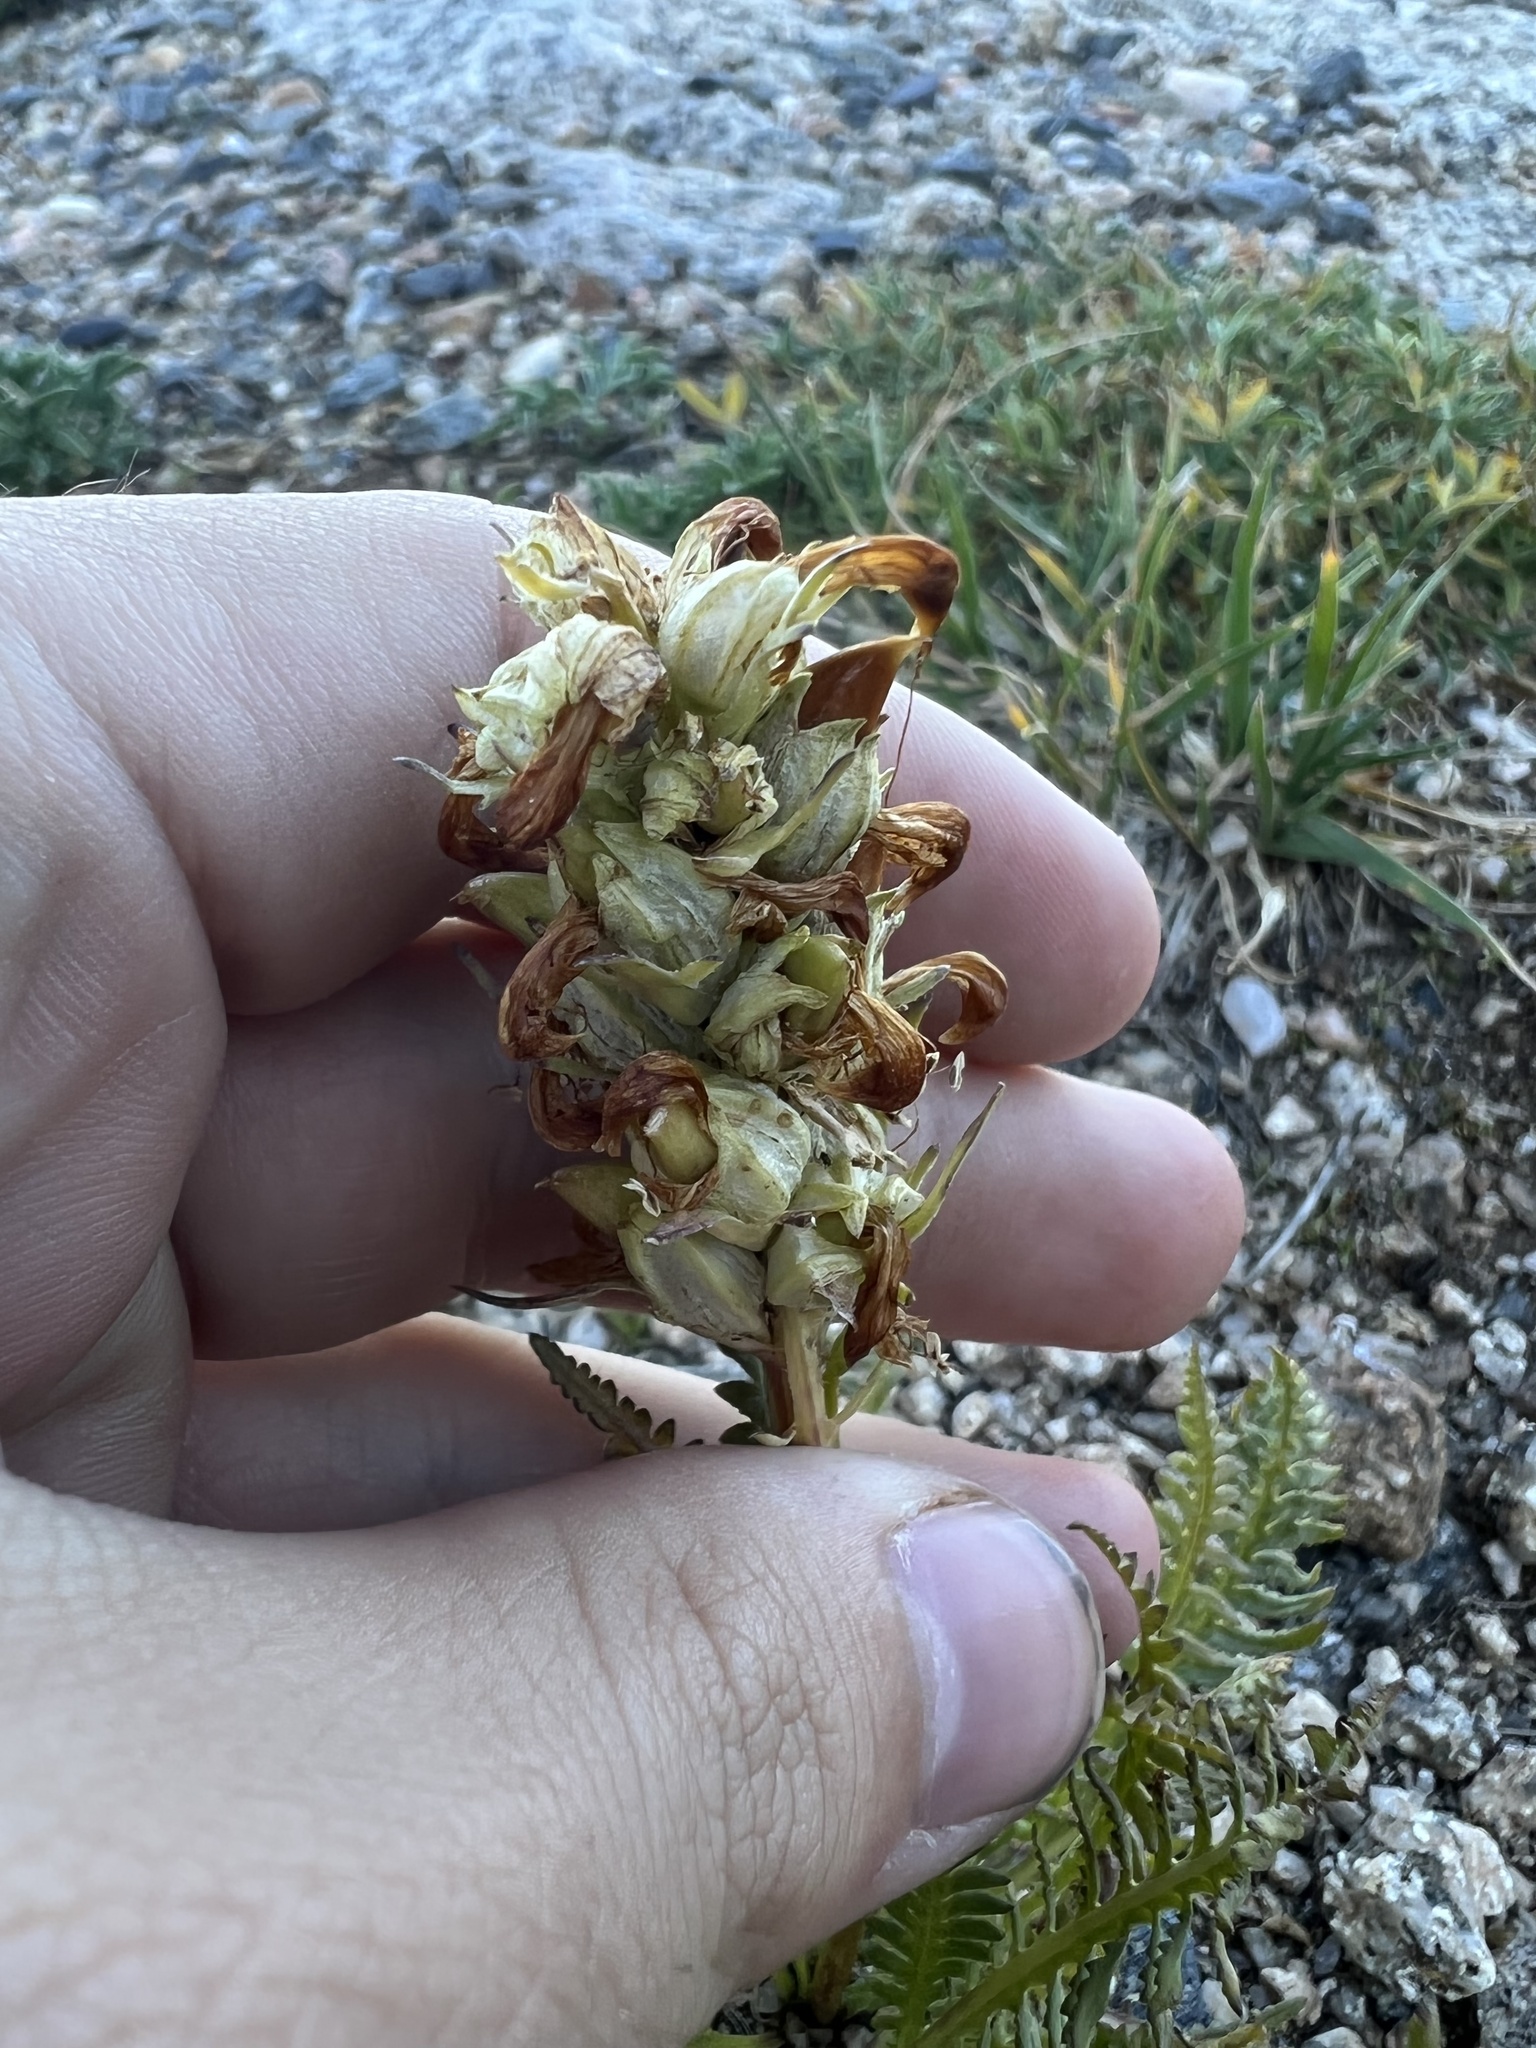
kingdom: Plantae
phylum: Tracheophyta
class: Magnoliopsida
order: Lamiales
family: Orobanchaceae
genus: Pedicularis
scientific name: Pedicularis parryi
